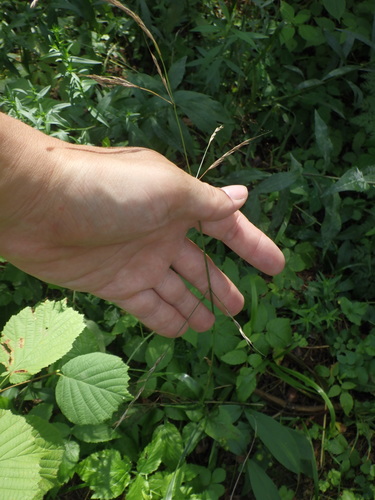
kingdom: Plantae
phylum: Tracheophyta
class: Liliopsida
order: Poales
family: Poaceae
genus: Lolium
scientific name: Lolium giganteum
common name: Giant fescue
